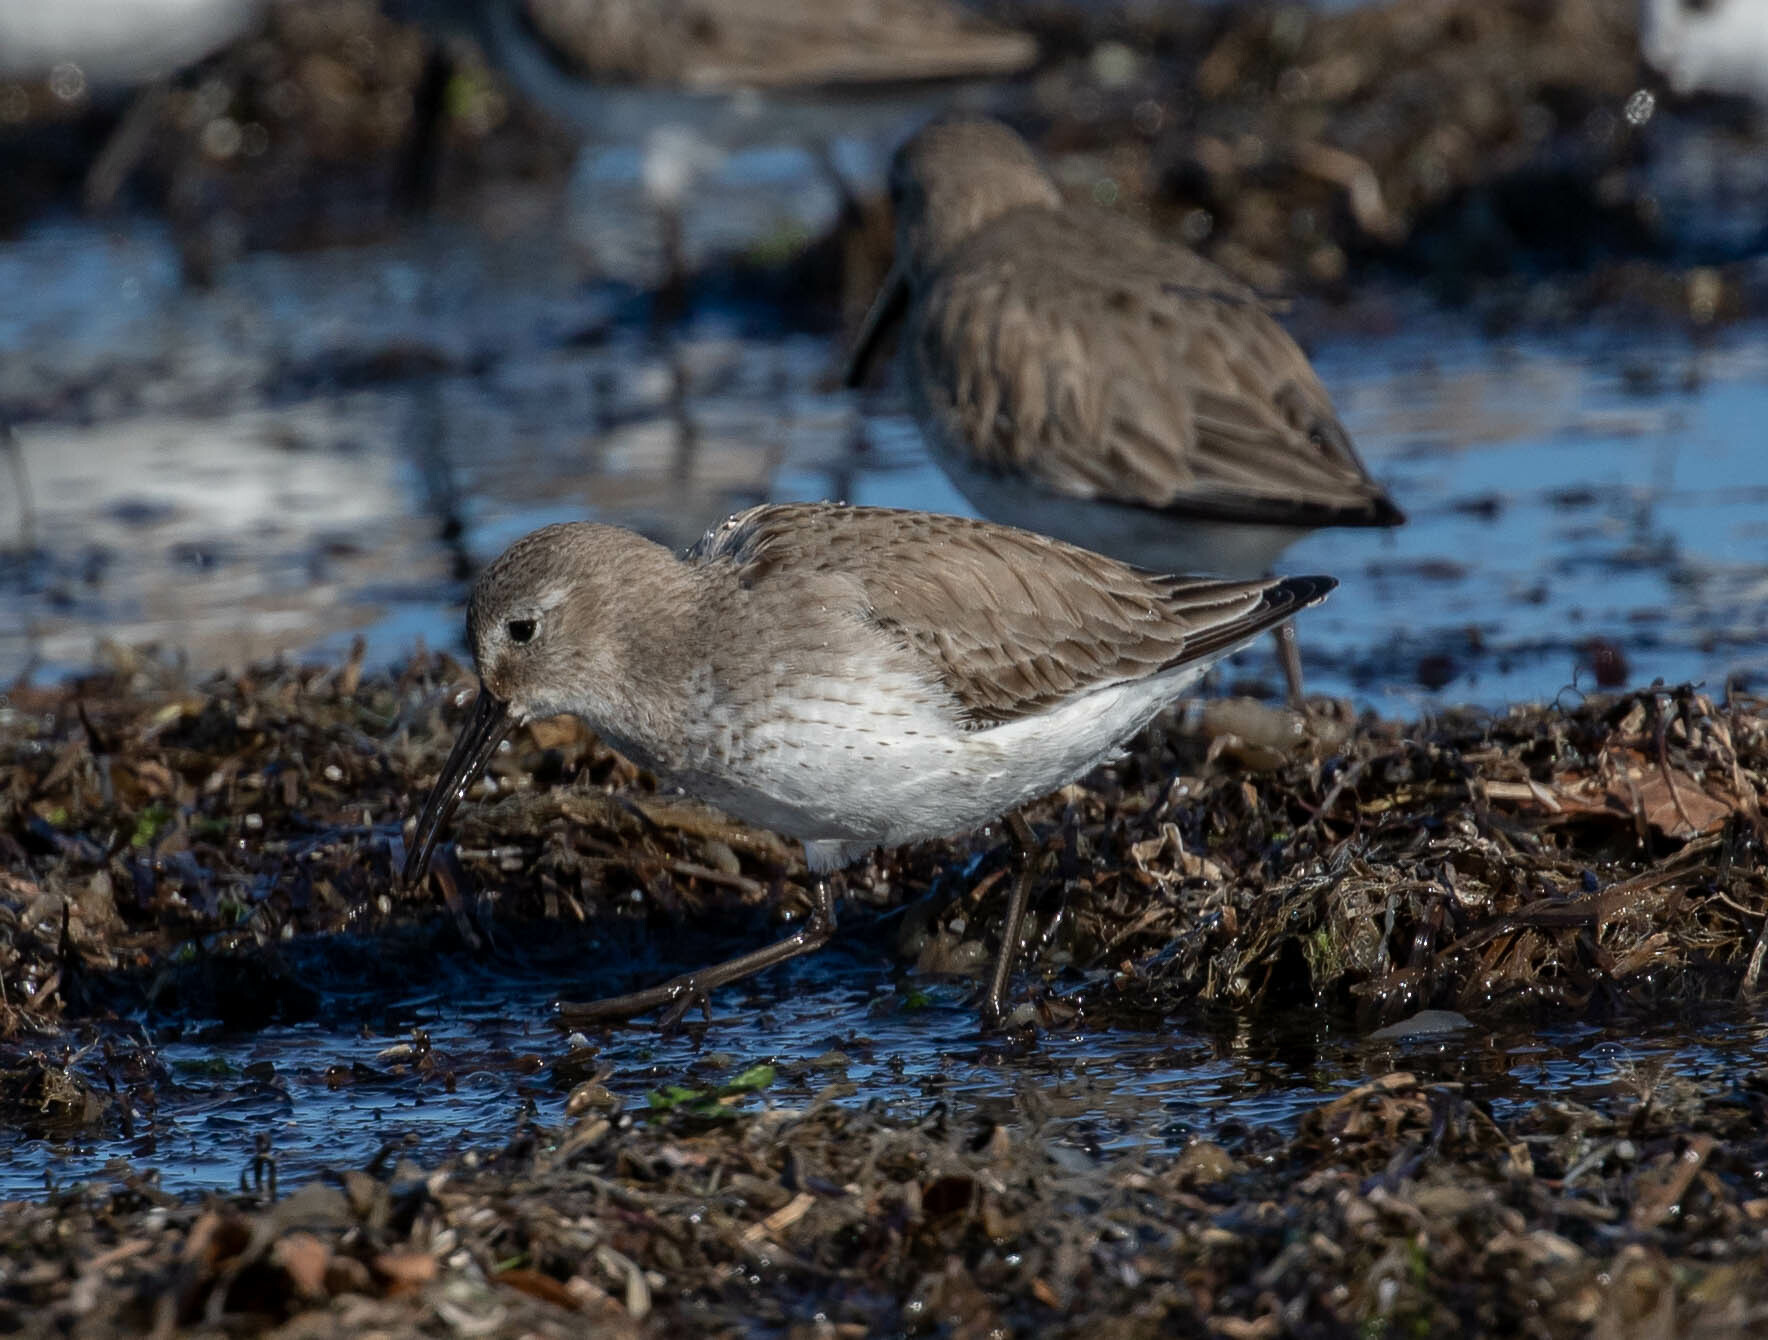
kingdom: Animalia
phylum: Chordata
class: Aves
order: Charadriiformes
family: Scolopacidae
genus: Calidris
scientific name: Calidris alpina
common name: Dunlin
